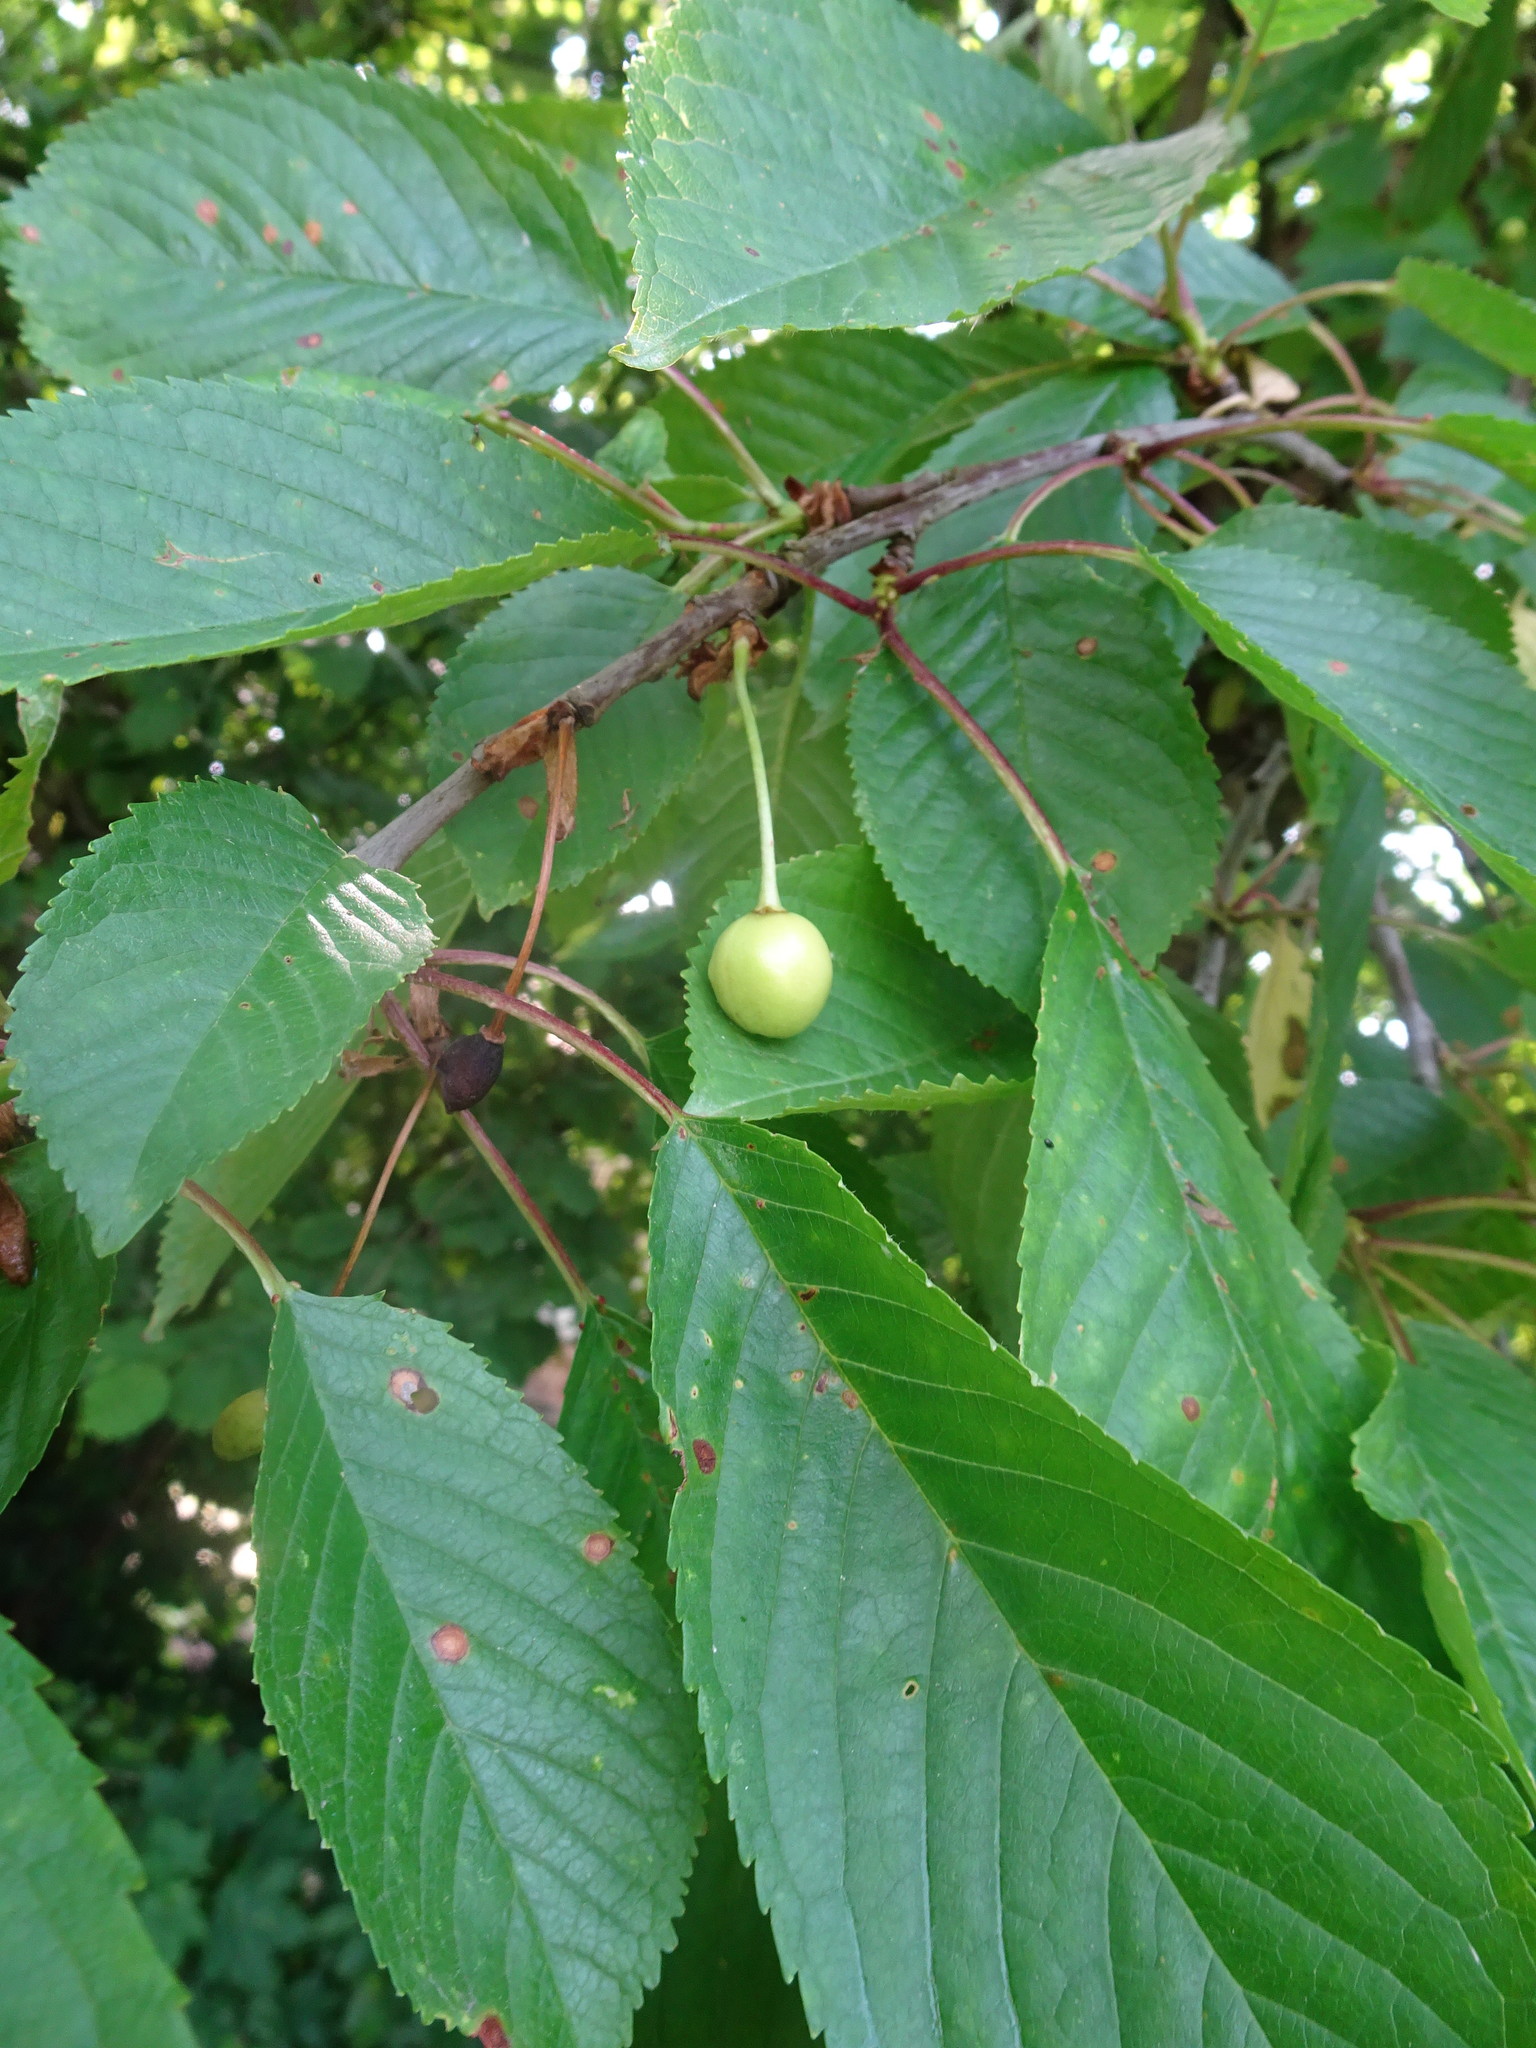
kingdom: Plantae
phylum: Tracheophyta
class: Magnoliopsida
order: Rosales
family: Rosaceae
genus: Prunus
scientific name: Prunus avium
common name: Sweet cherry
